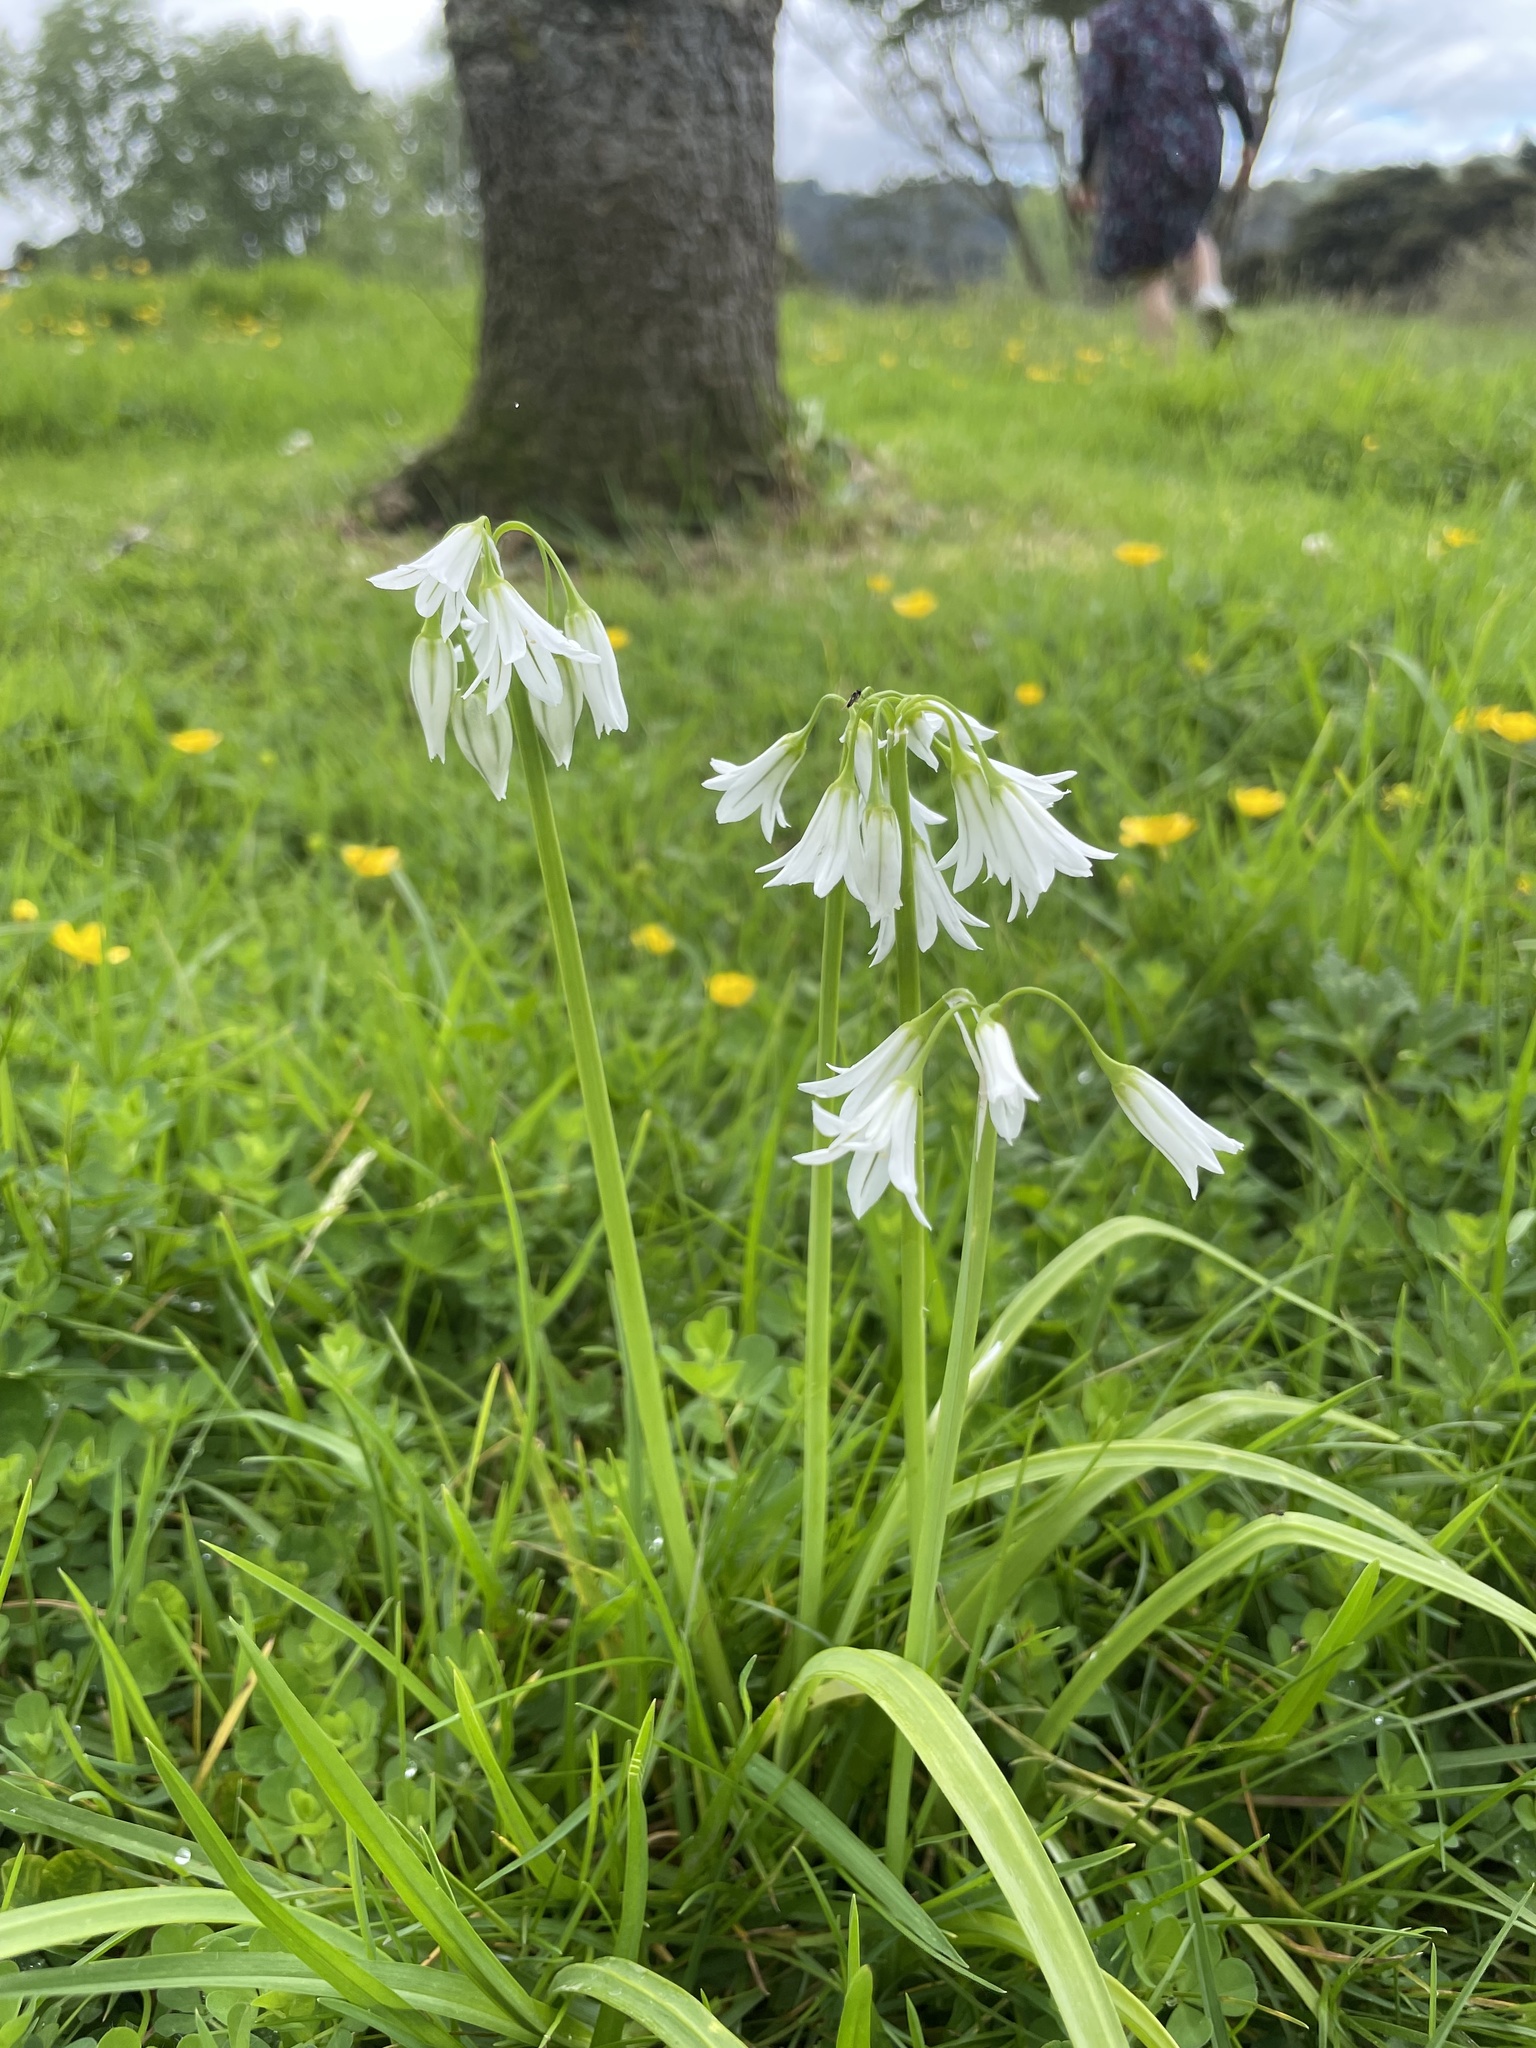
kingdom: Plantae
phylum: Tracheophyta
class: Liliopsida
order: Asparagales
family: Amaryllidaceae
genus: Allium
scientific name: Allium triquetrum
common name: Three-cornered garlic
